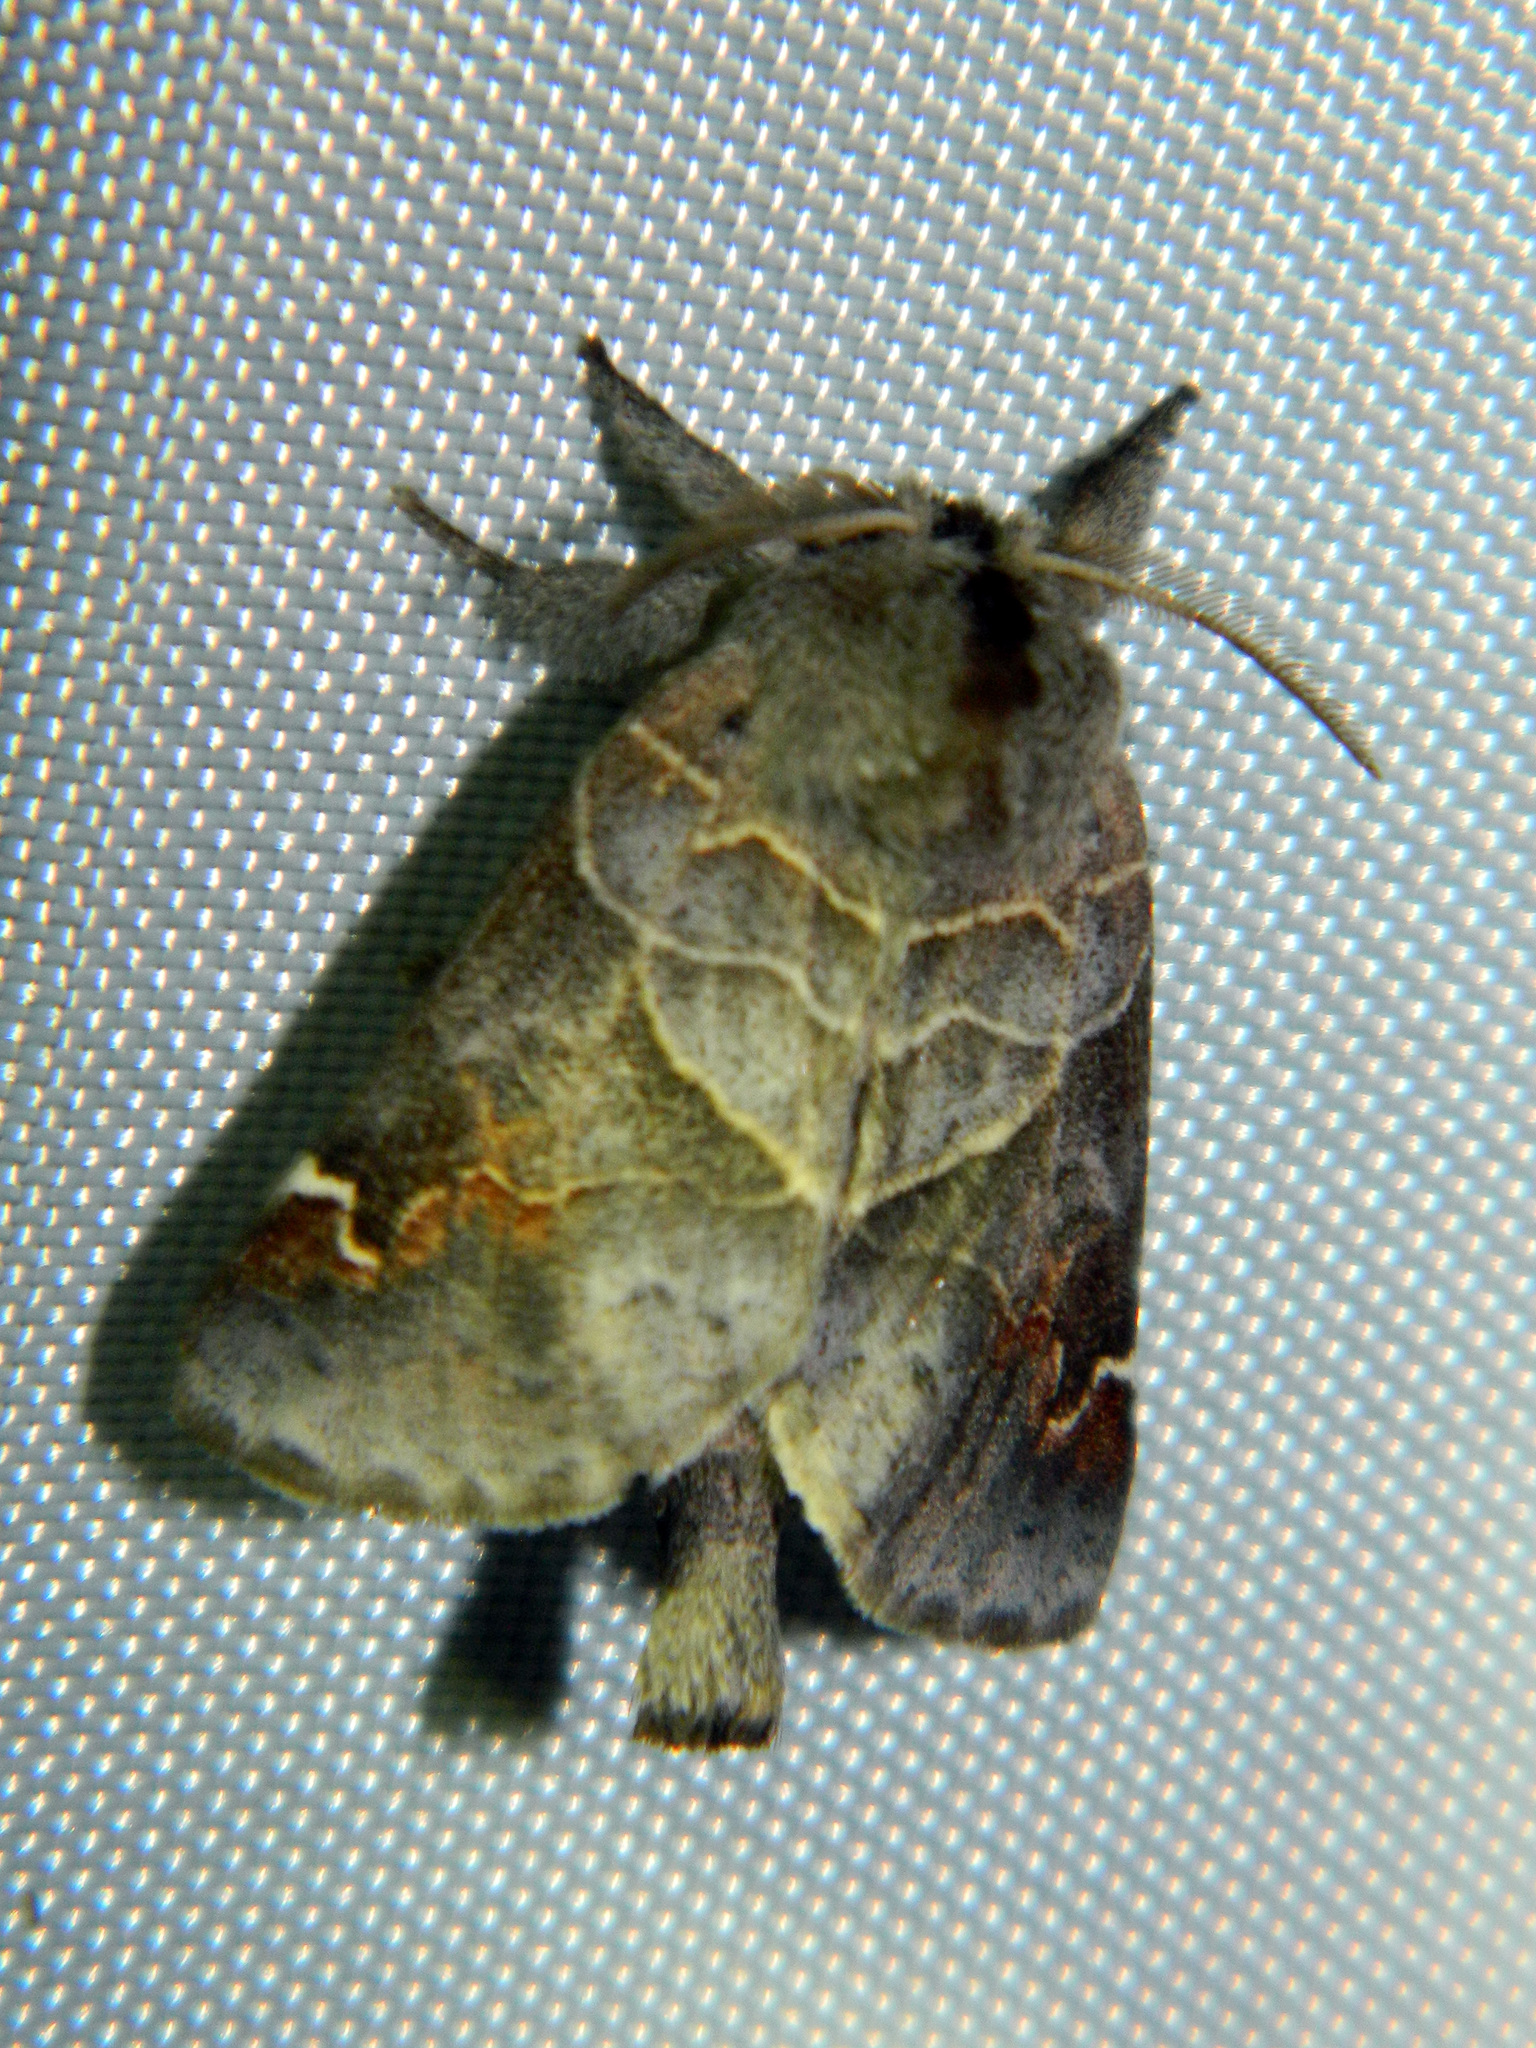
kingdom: Animalia
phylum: Arthropoda
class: Insecta
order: Lepidoptera
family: Notodontidae
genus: Clostera
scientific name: Clostera apicalis
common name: Apical prominent
